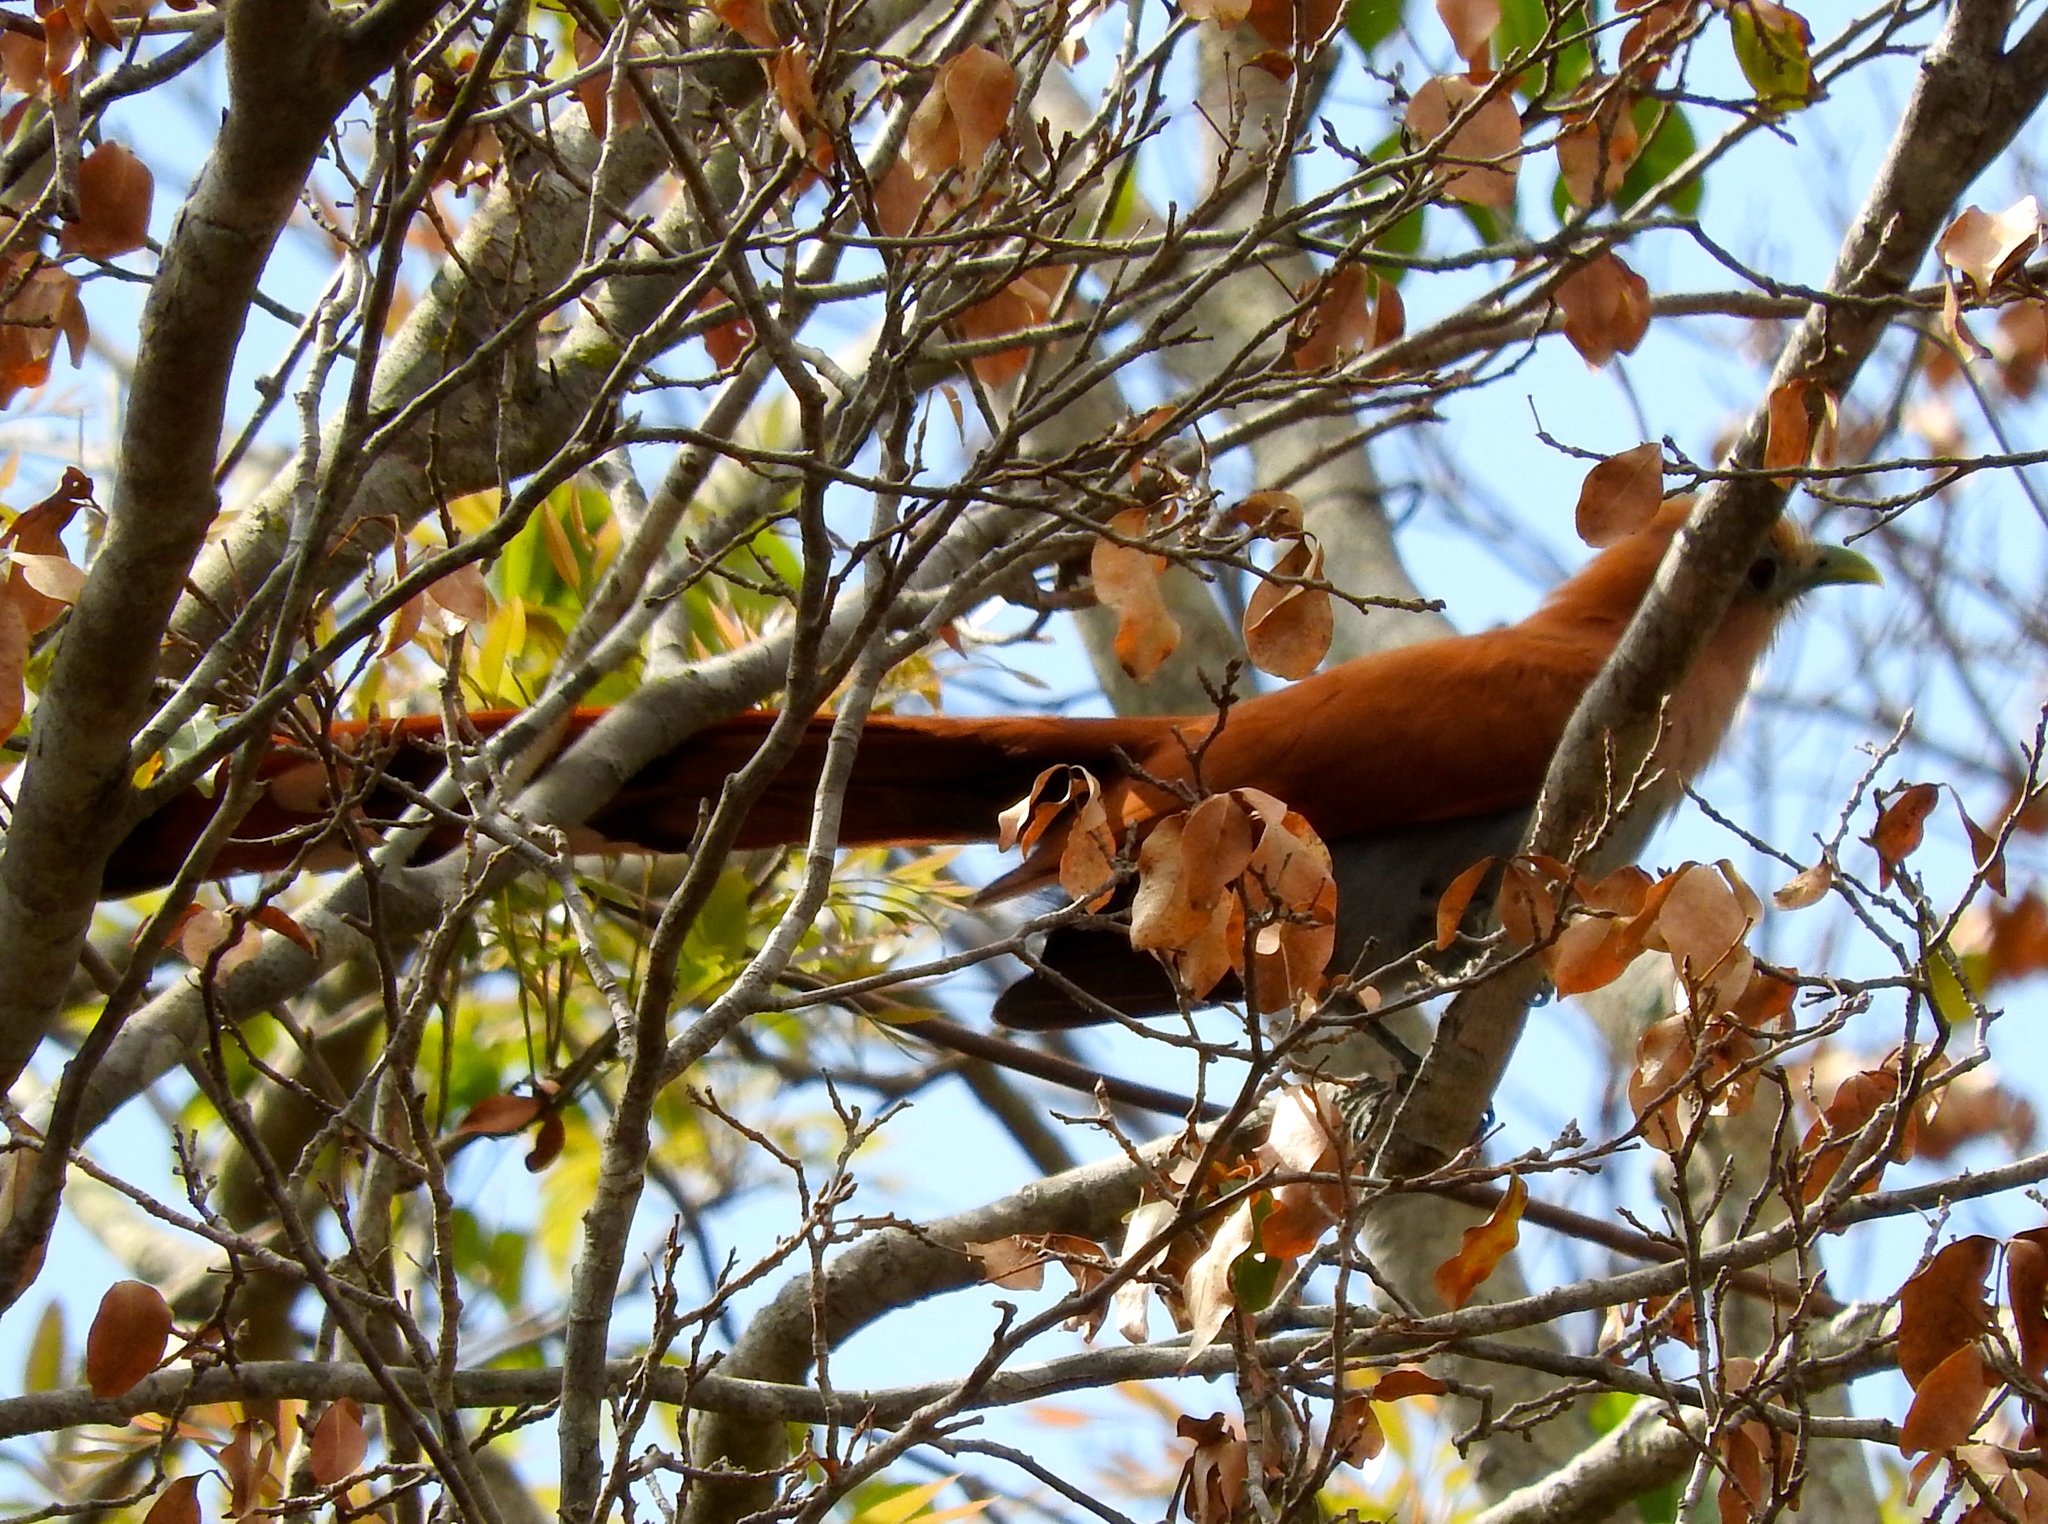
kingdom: Animalia
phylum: Chordata
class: Aves
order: Cuculiformes
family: Cuculidae
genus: Piaya
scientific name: Piaya cayana
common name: Squirrel cuckoo
